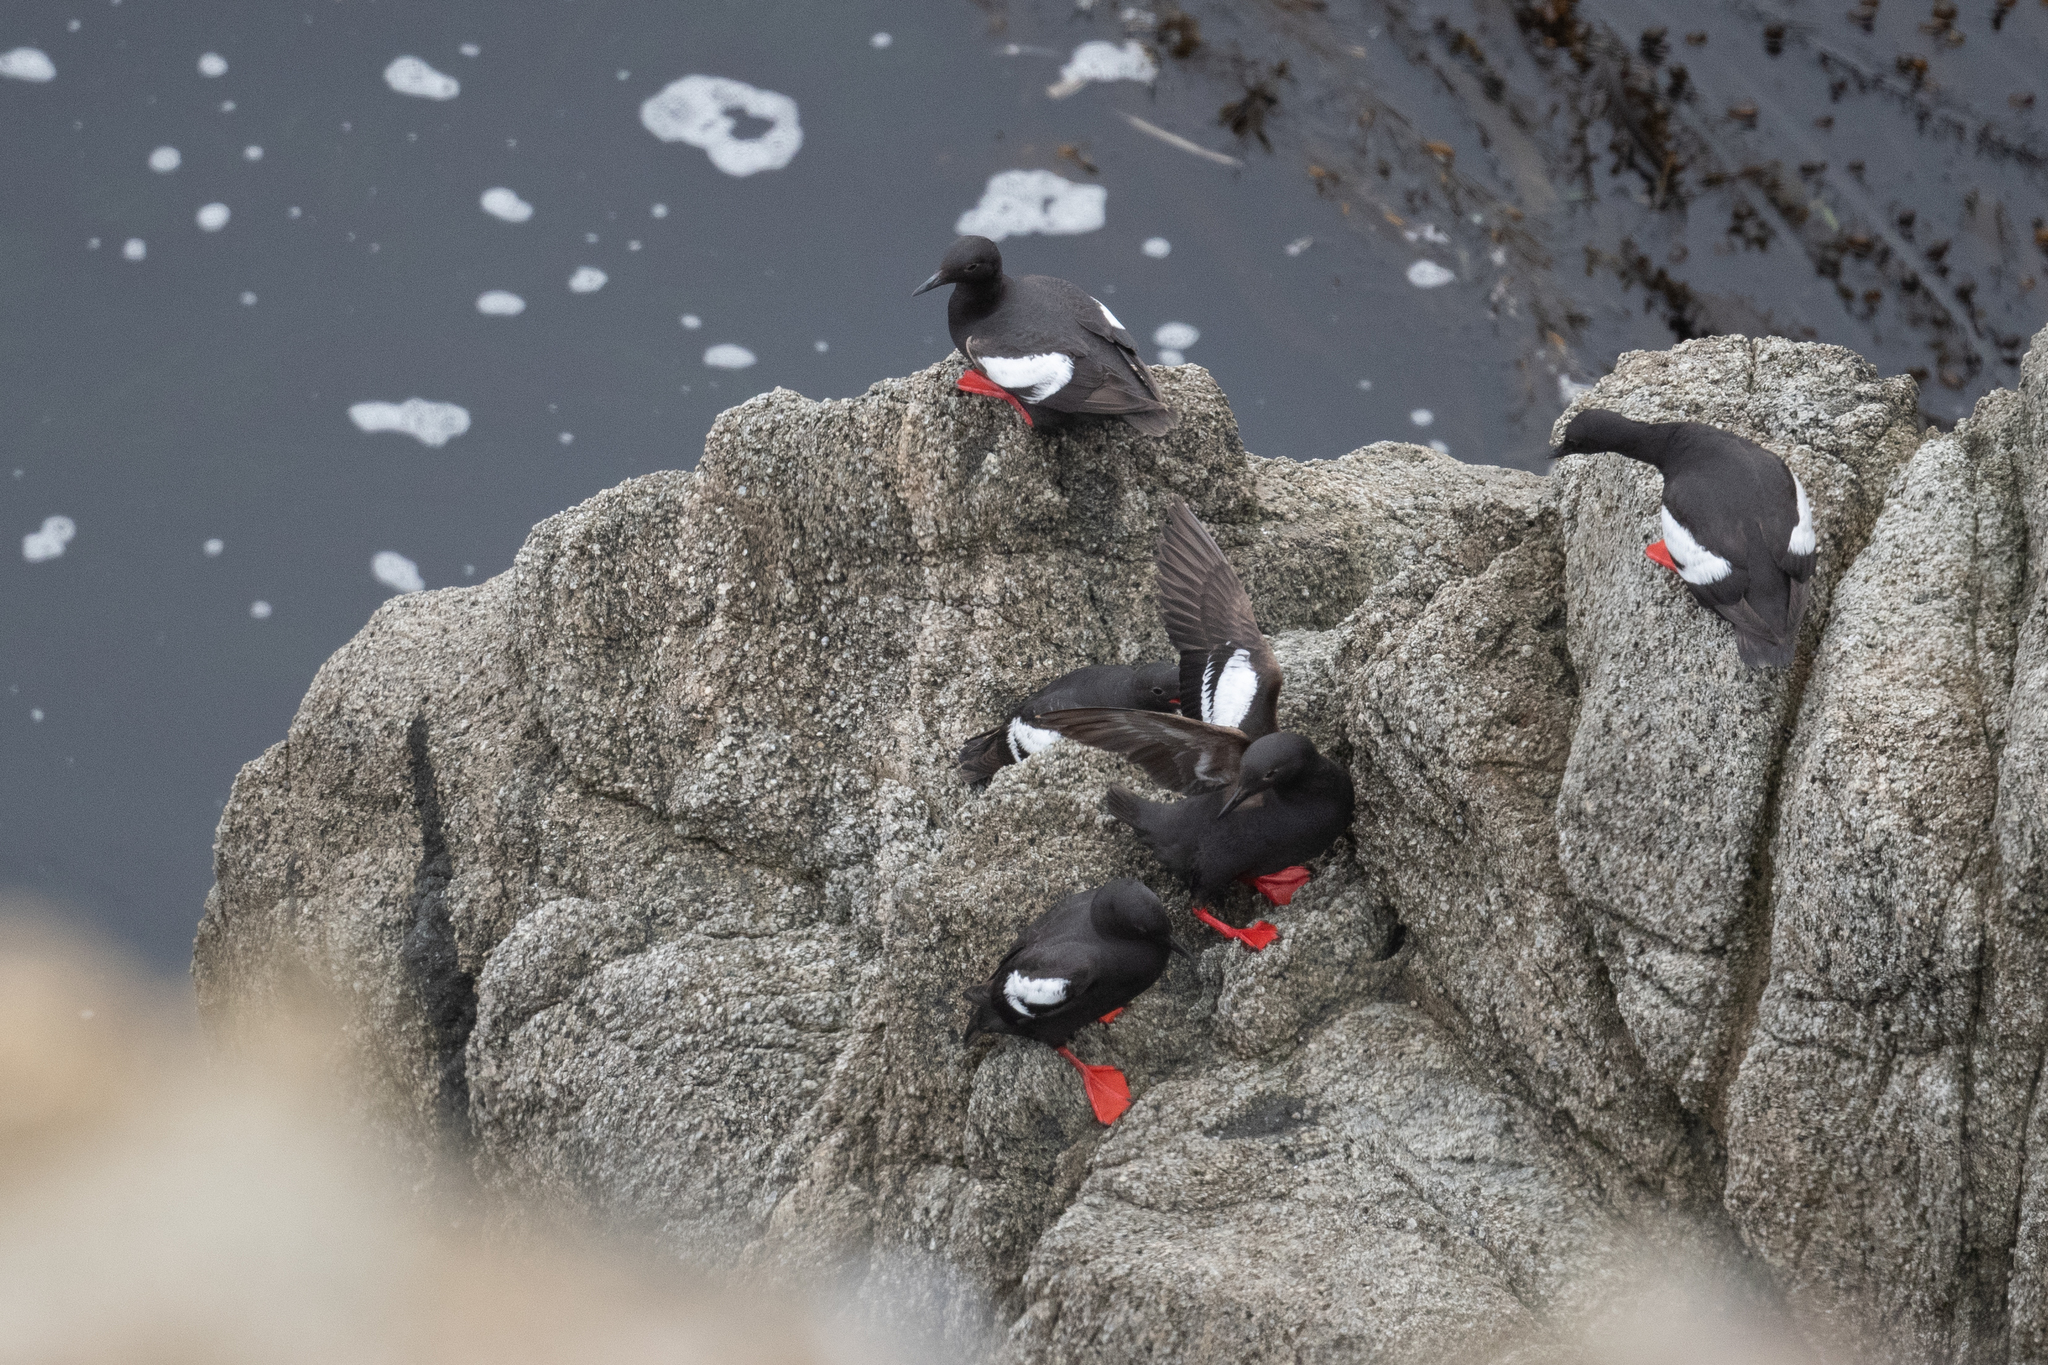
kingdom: Animalia
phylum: Chordata
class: Aves
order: Charadriiformes
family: Alcidae
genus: Cepphus
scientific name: Cepphus columba
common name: Pigeon guillemot
